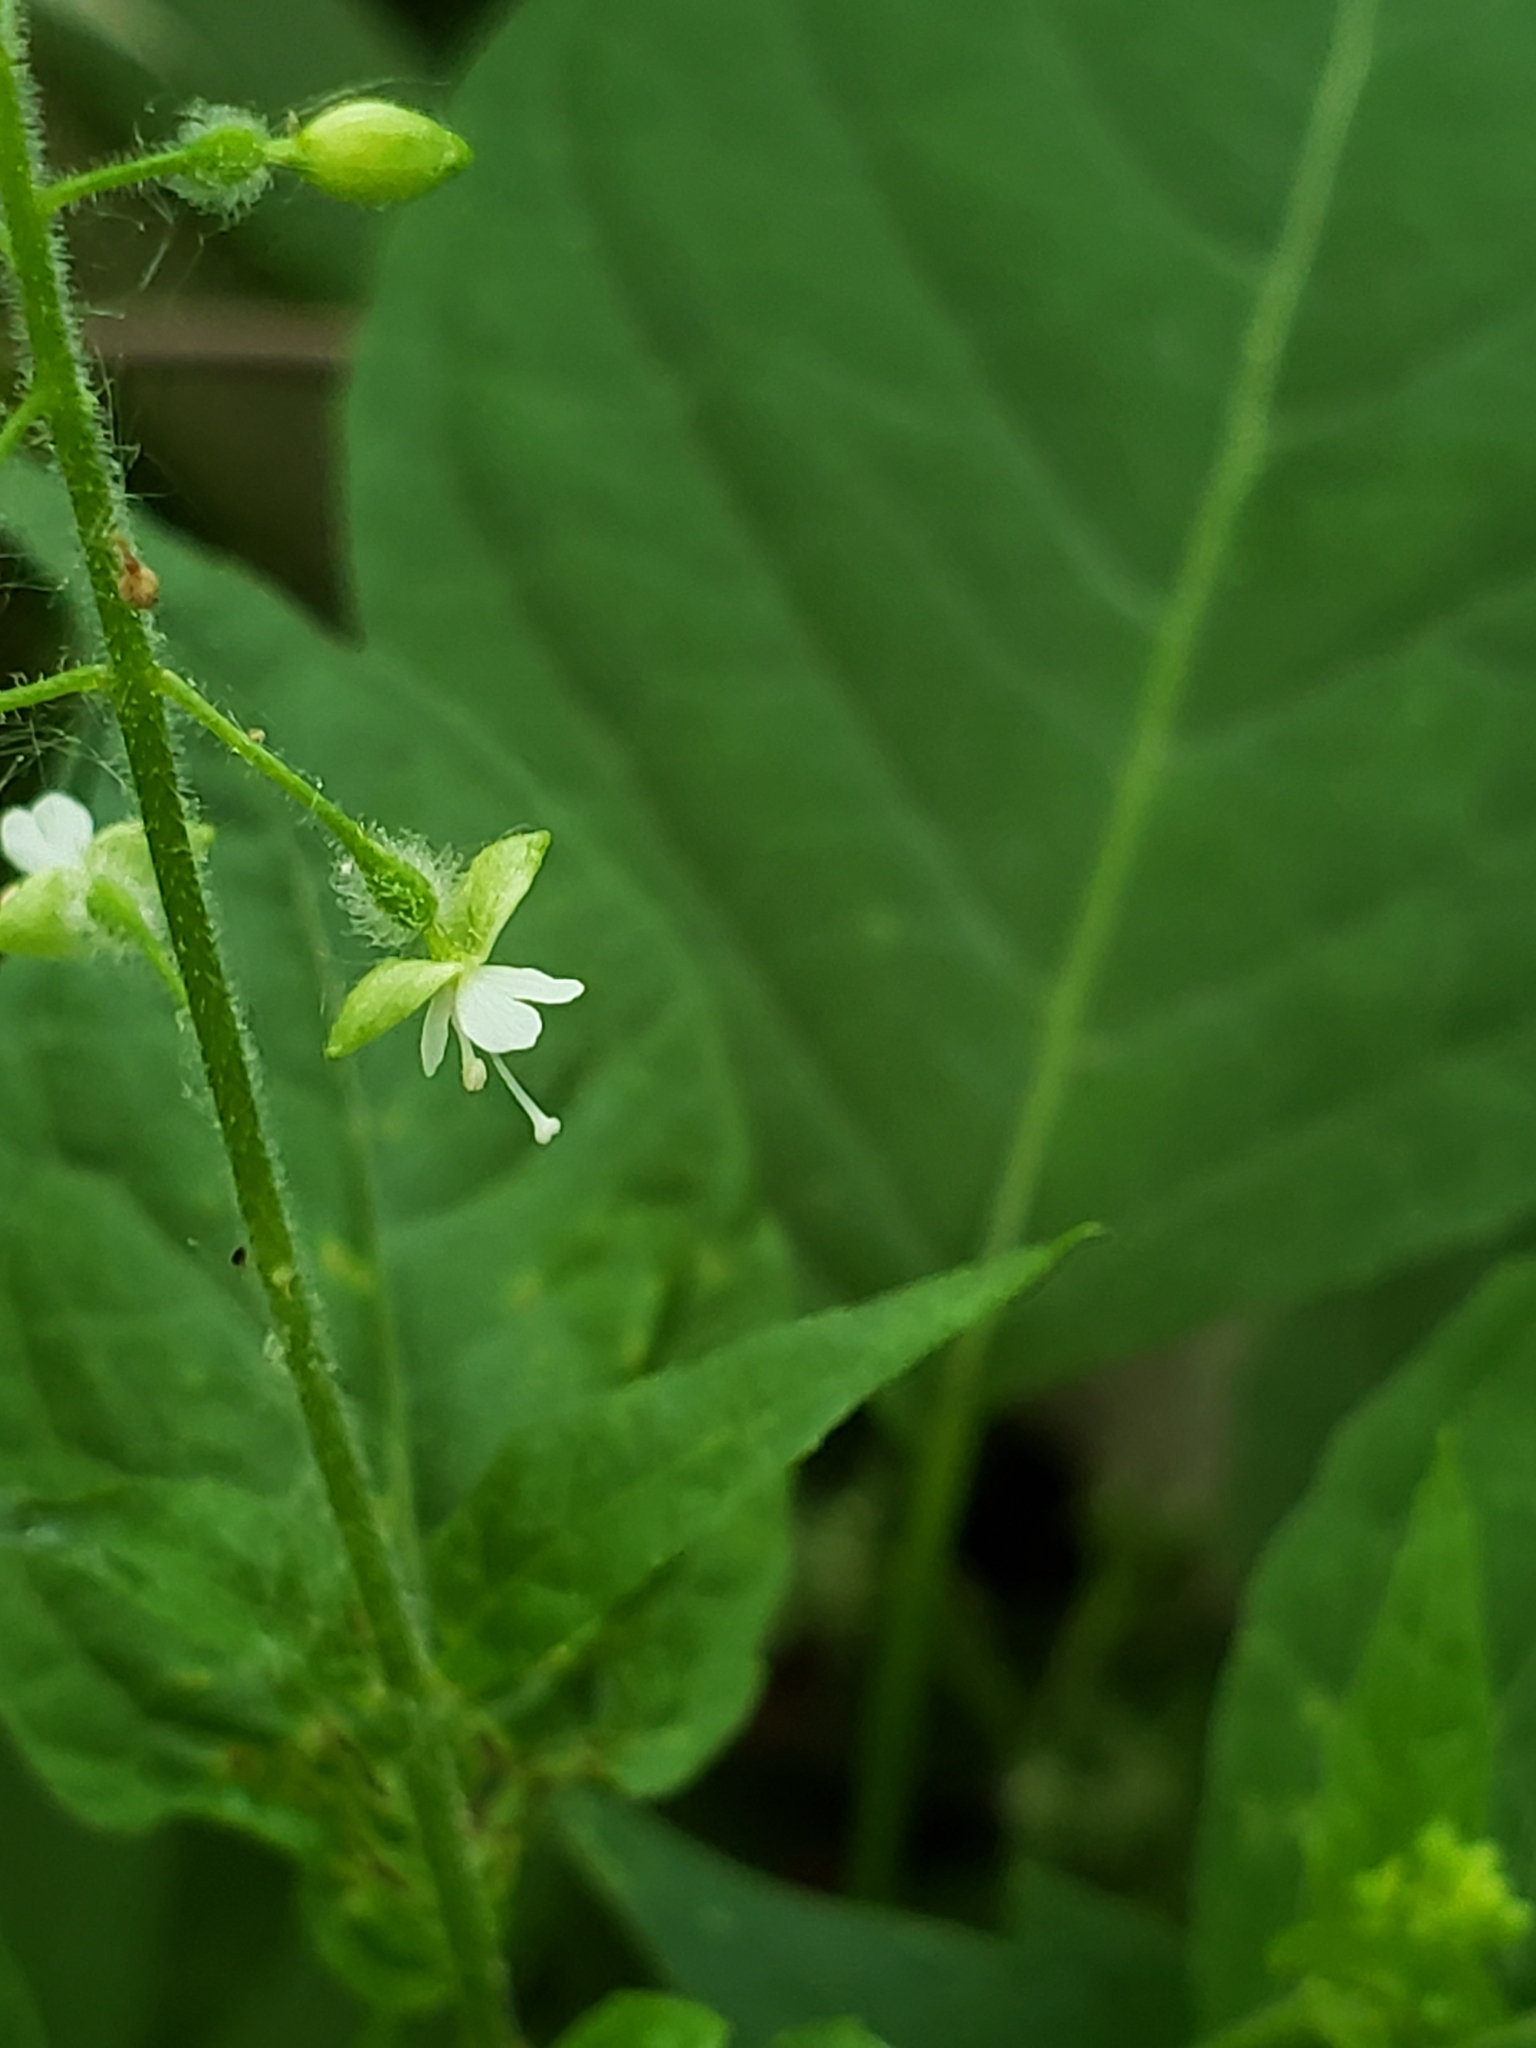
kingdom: Plantae
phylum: Tracheophyta
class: Magnoliopsida
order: Myrtales
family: Onagraceae
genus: Circaea
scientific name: Circaea canadensis
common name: Broad-leaved enchanter's nightshade
